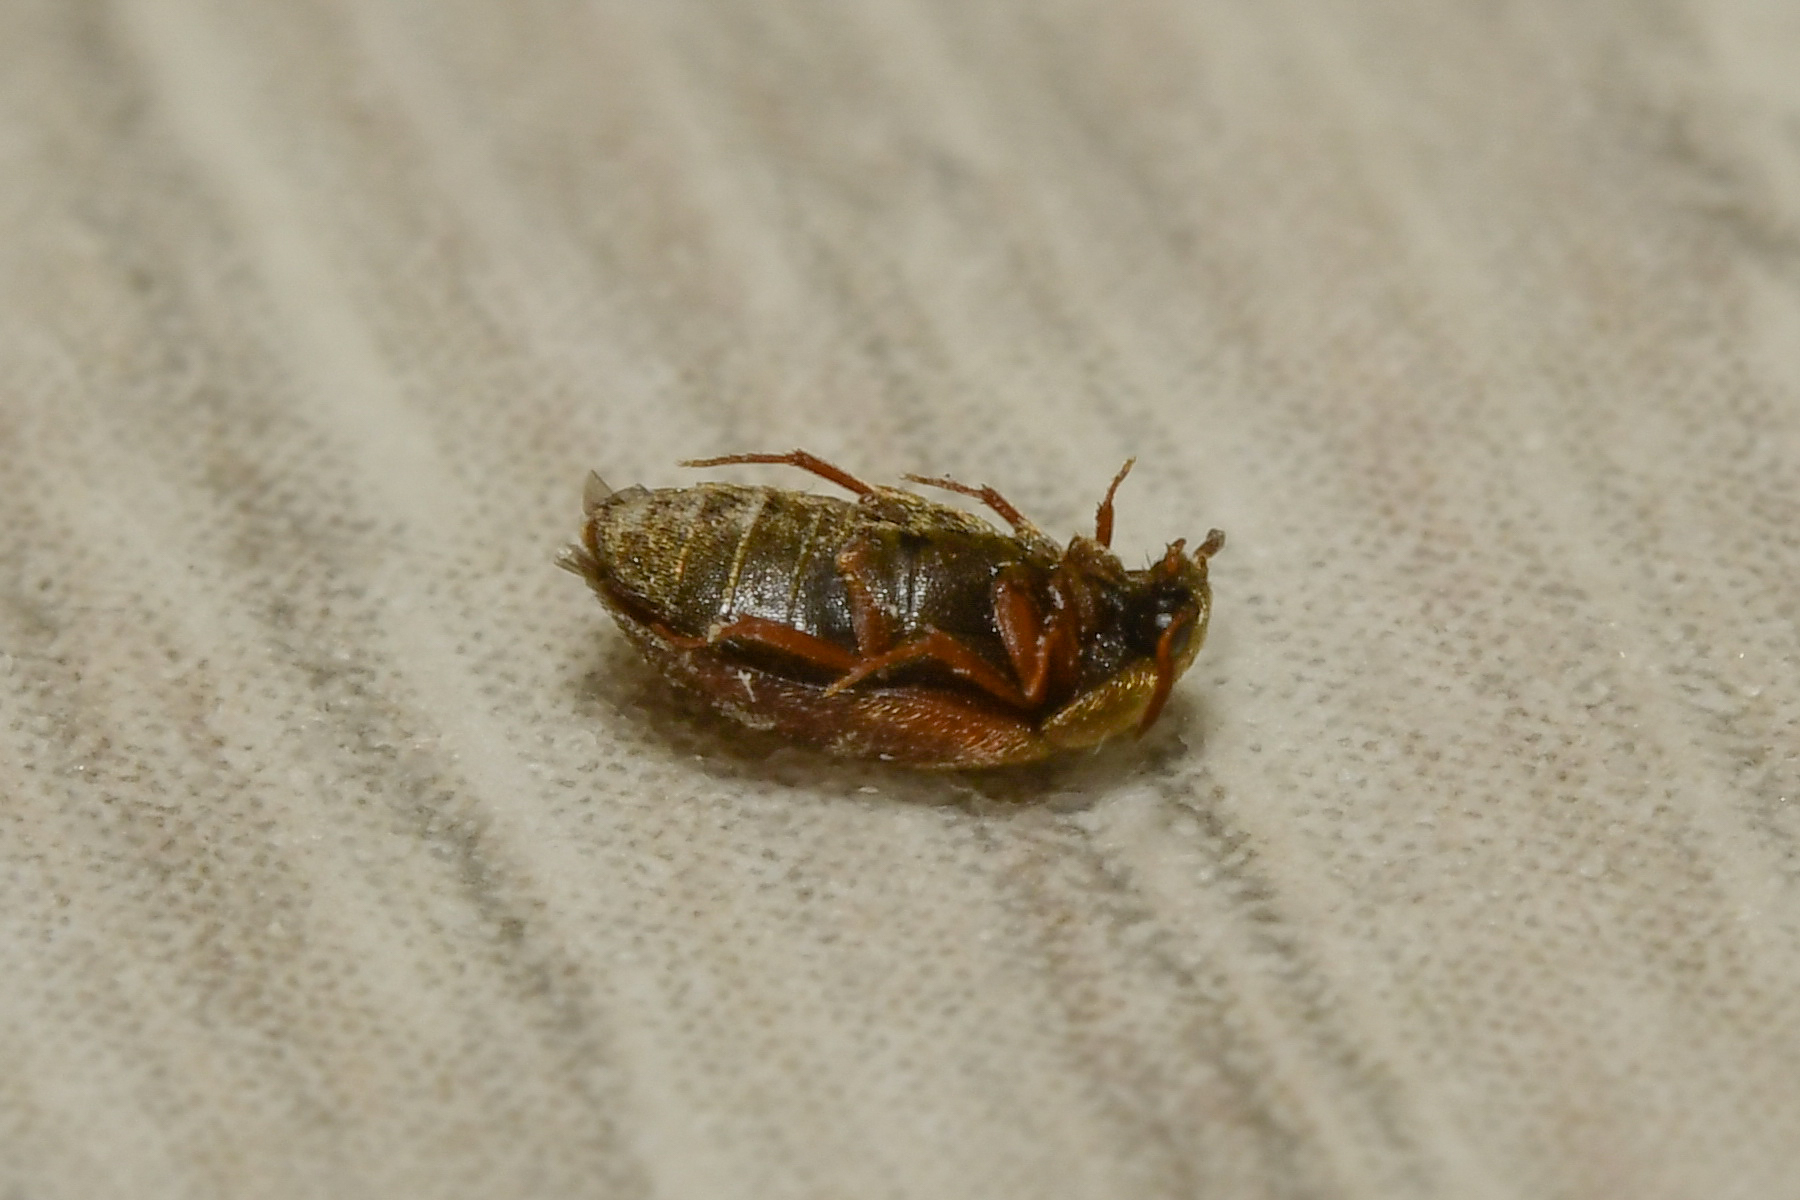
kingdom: Animalia
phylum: Arthropoda
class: Insecta
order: Coleoptera
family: Dermestidae
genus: Attagenus
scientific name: Attagenus smirnovi
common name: Brown carpet beetle
